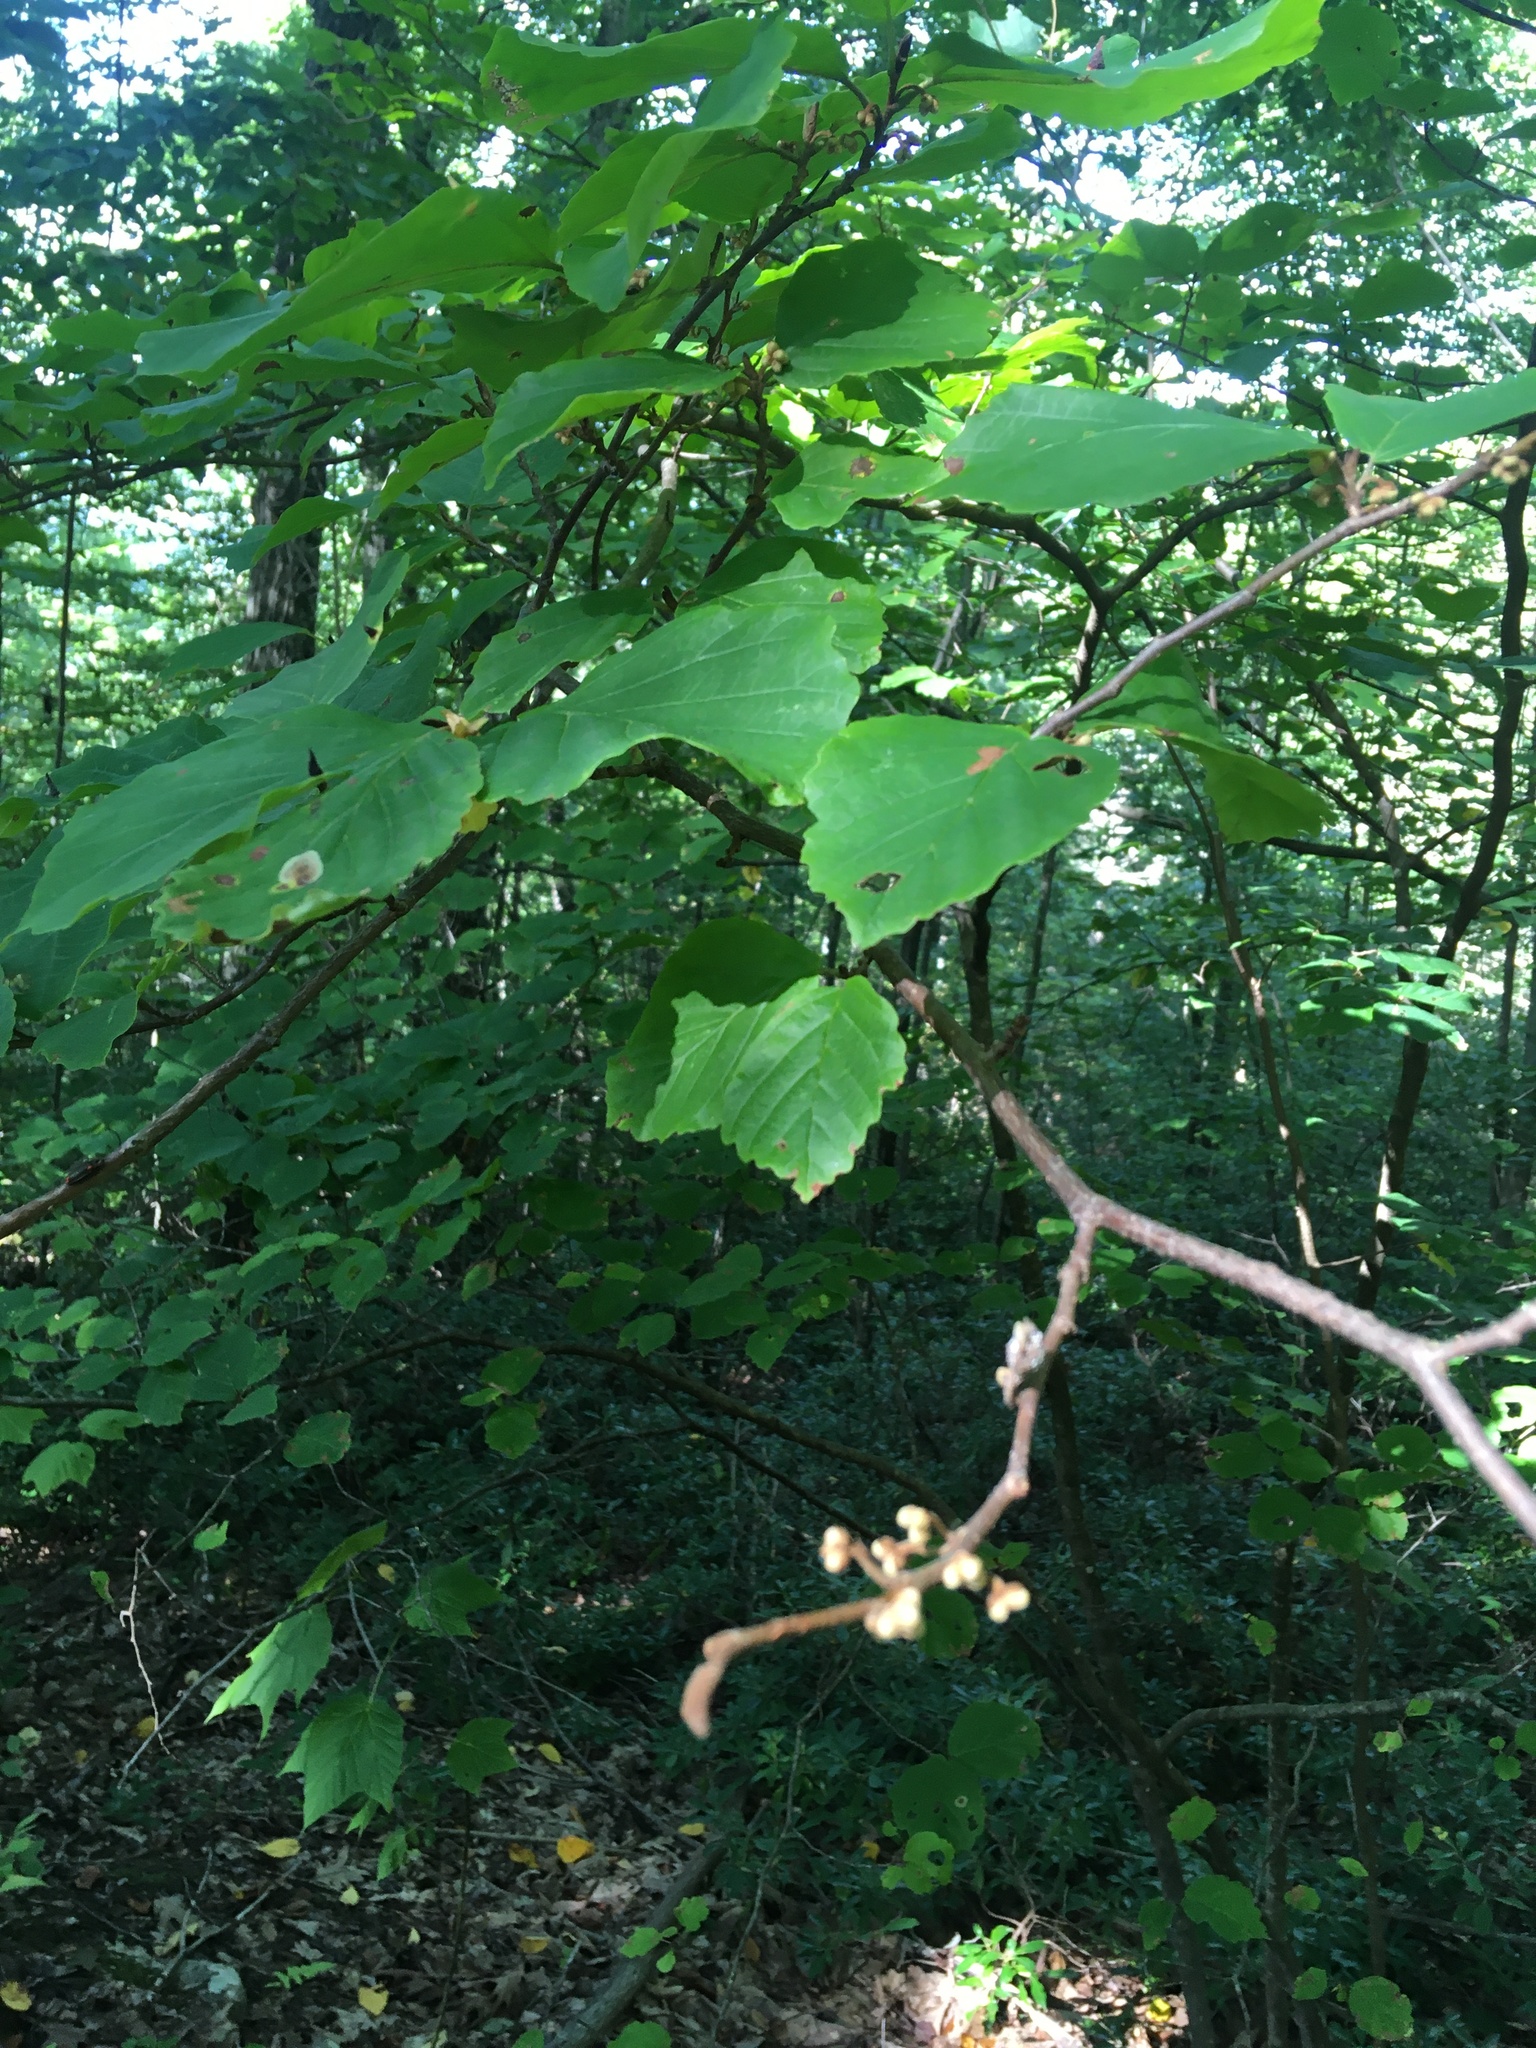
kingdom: Plantae
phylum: Tracheophyta
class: Magnoliopsida
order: Saxifragales
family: Hamamelidaceae
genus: Hamamelis
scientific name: Hamamelis virginiana
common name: Witch-hazel
